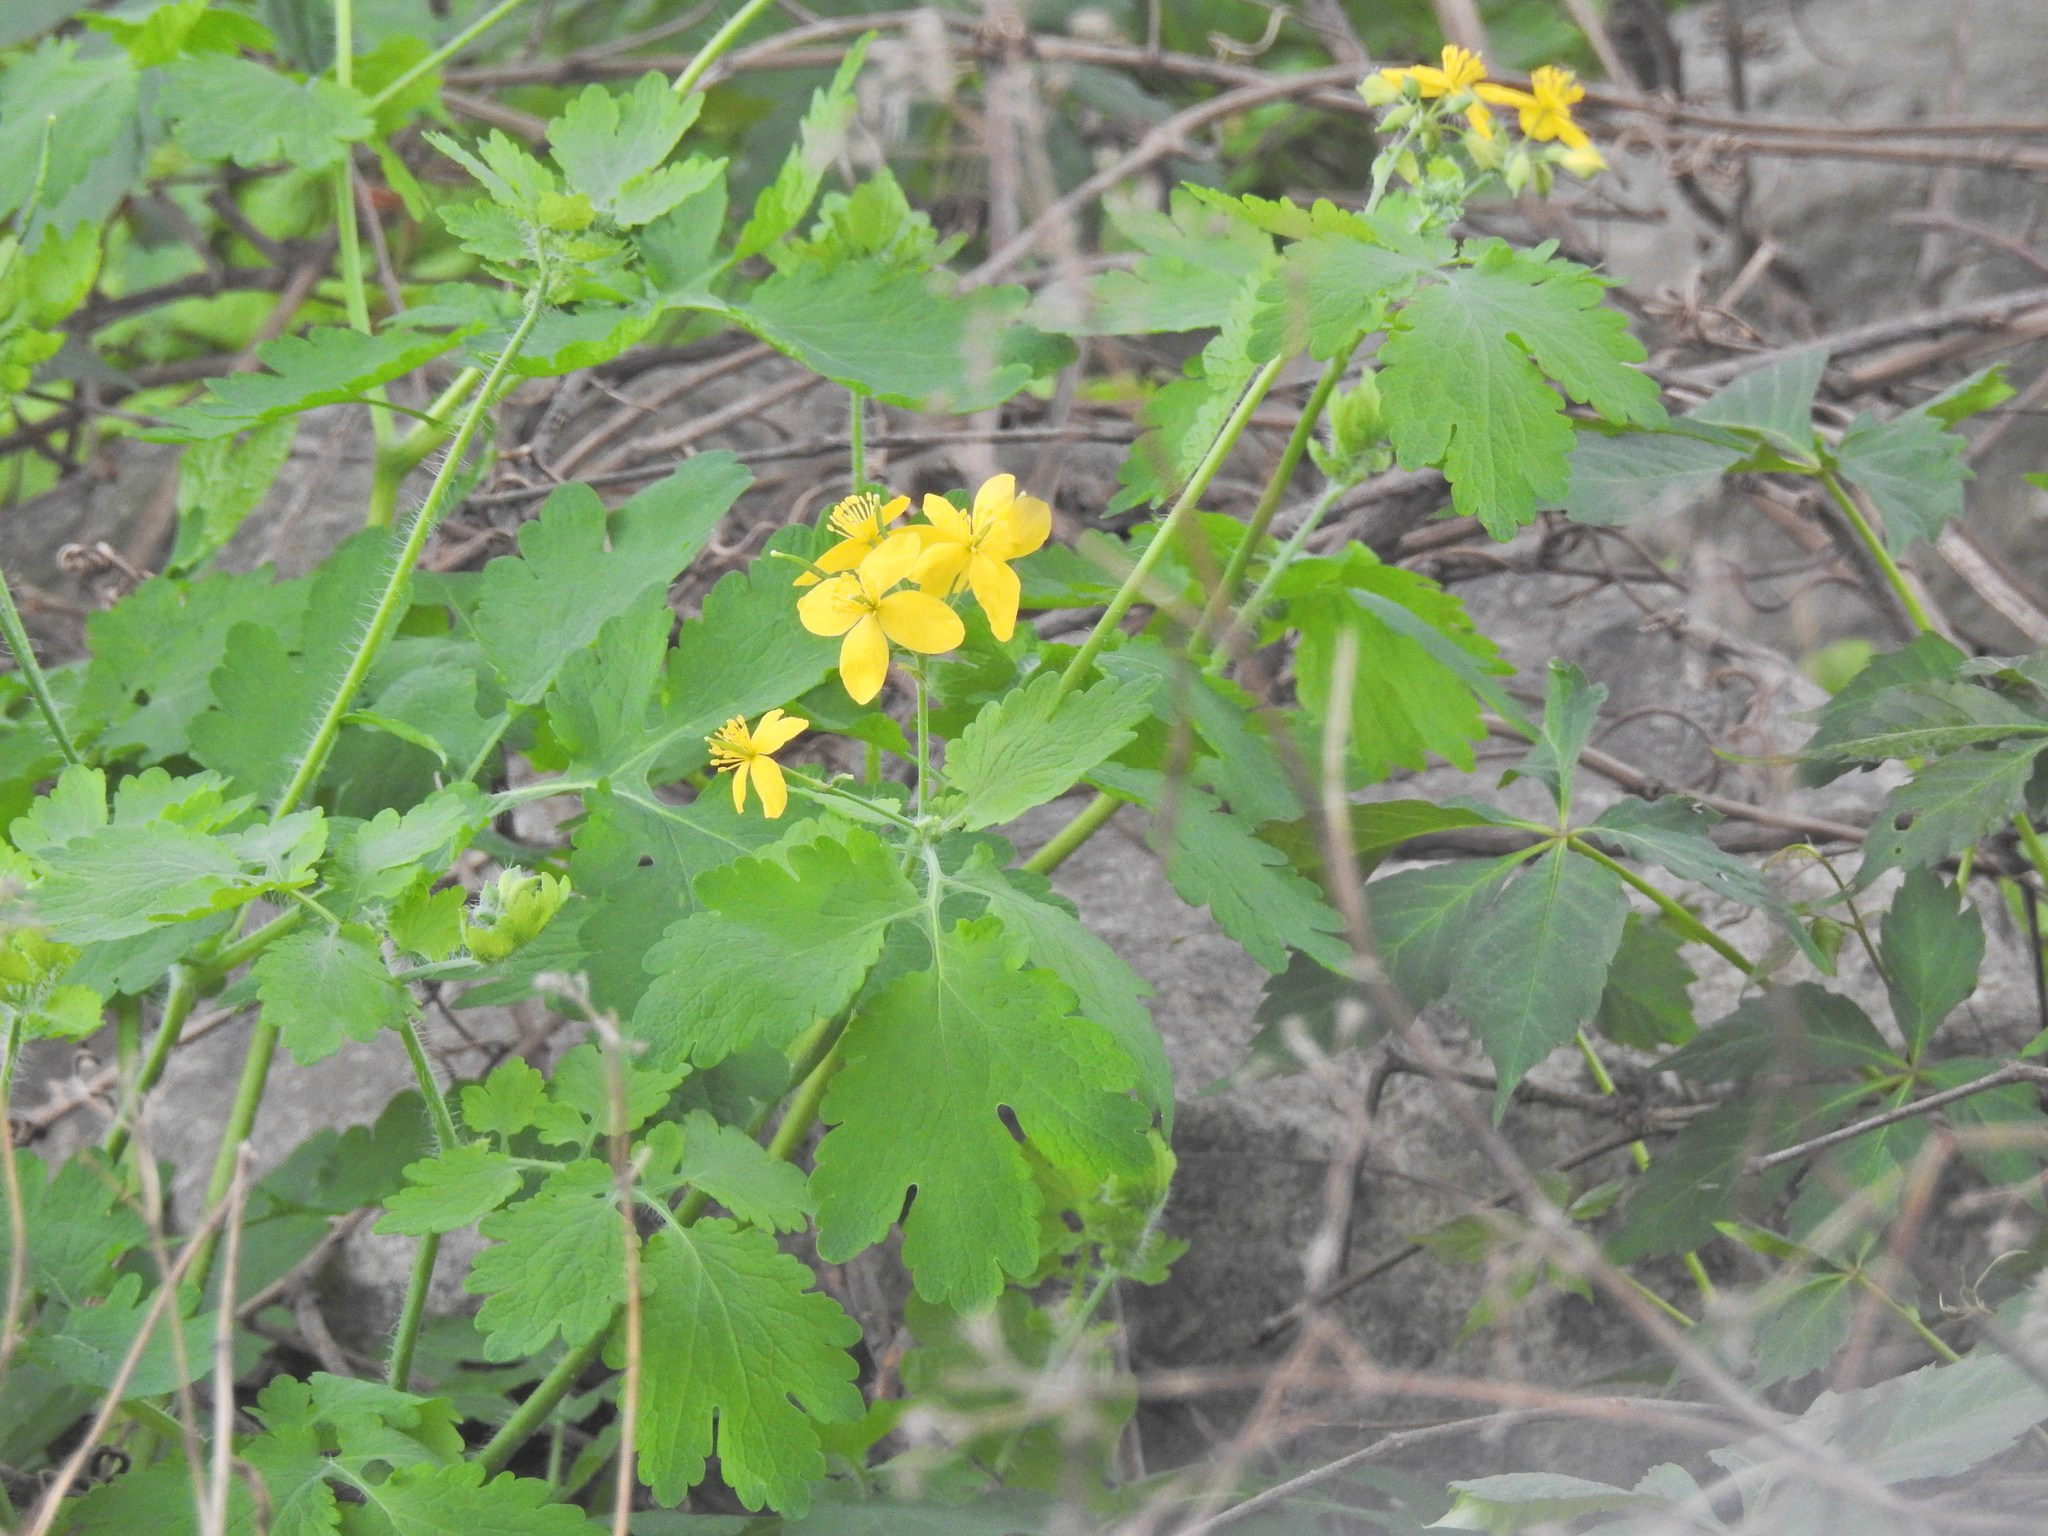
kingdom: Plantae
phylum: Tracheophyta
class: Magnoliopsida
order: Ranunculales
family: Papaveraceae
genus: Chelidonium
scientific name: Chelidonium majus
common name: Greater celandine
